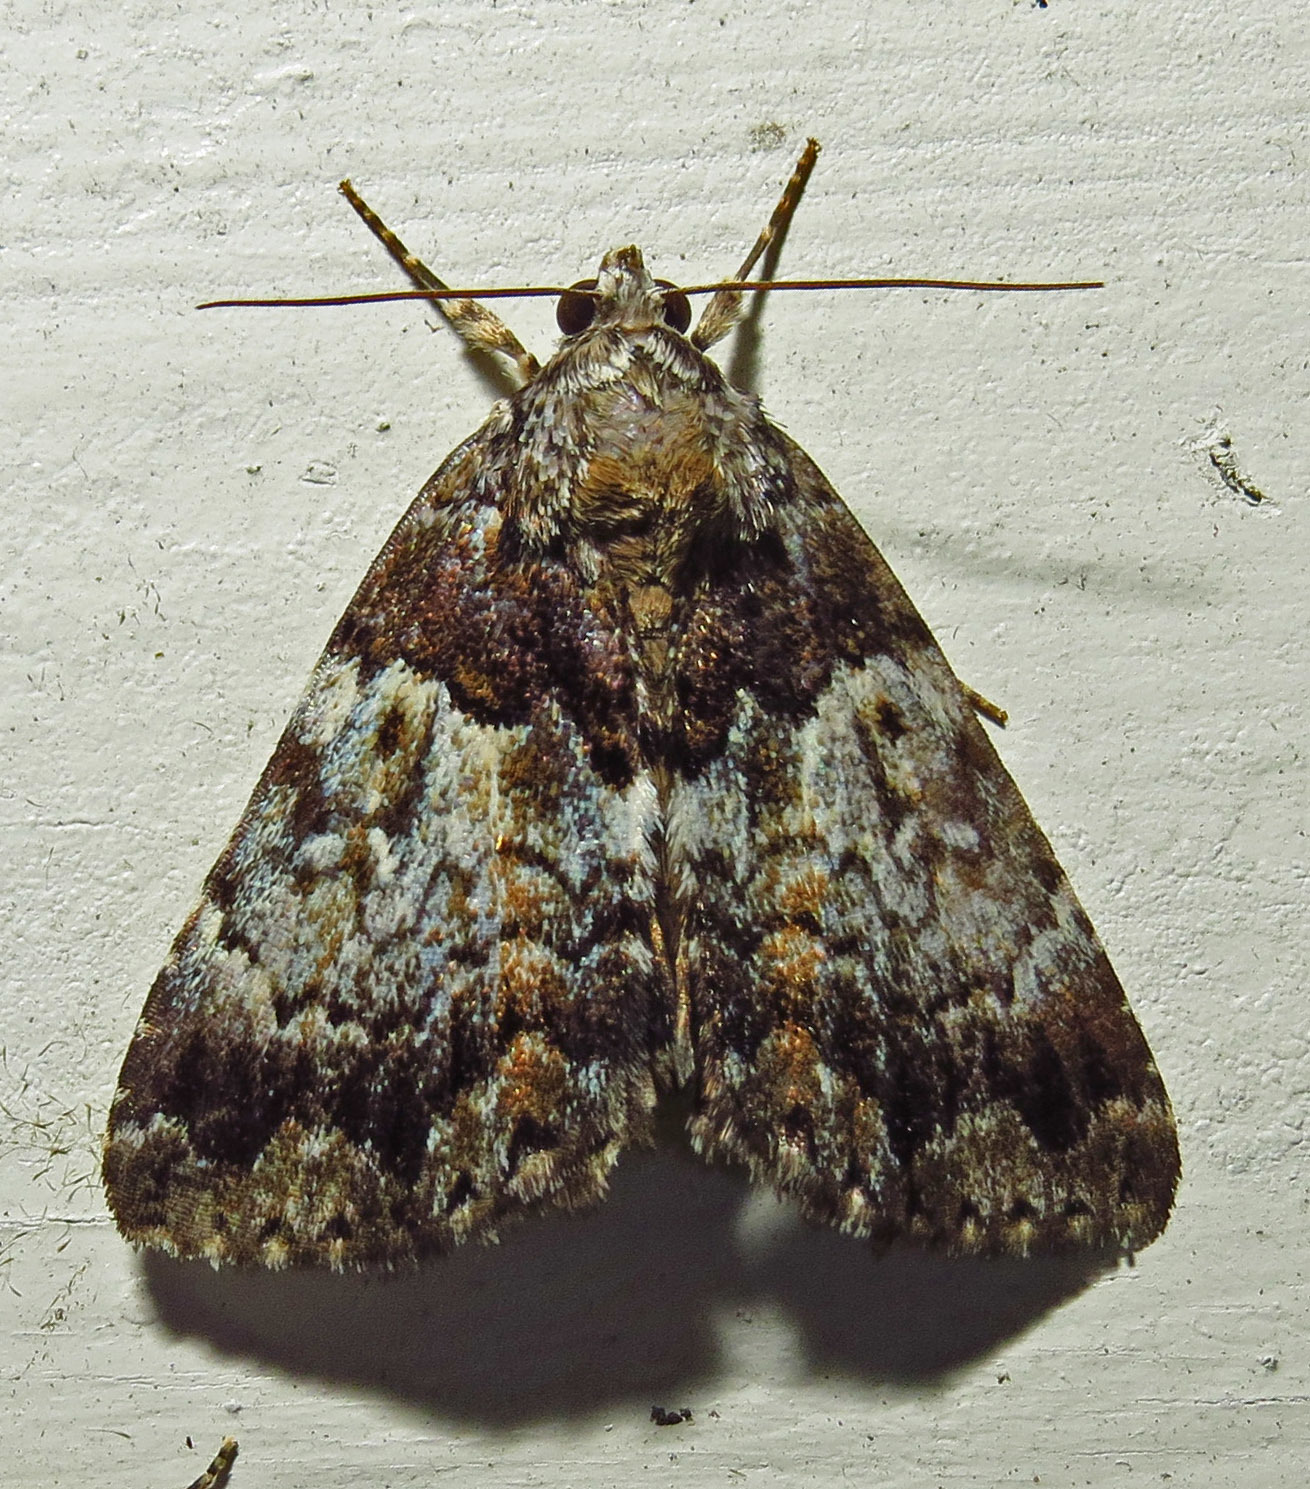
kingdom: Animalia
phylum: Arthropoda
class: Insecta
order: Lepidoptera
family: Erebidae
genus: Allotria
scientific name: Allotria elonympha
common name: False underwing
